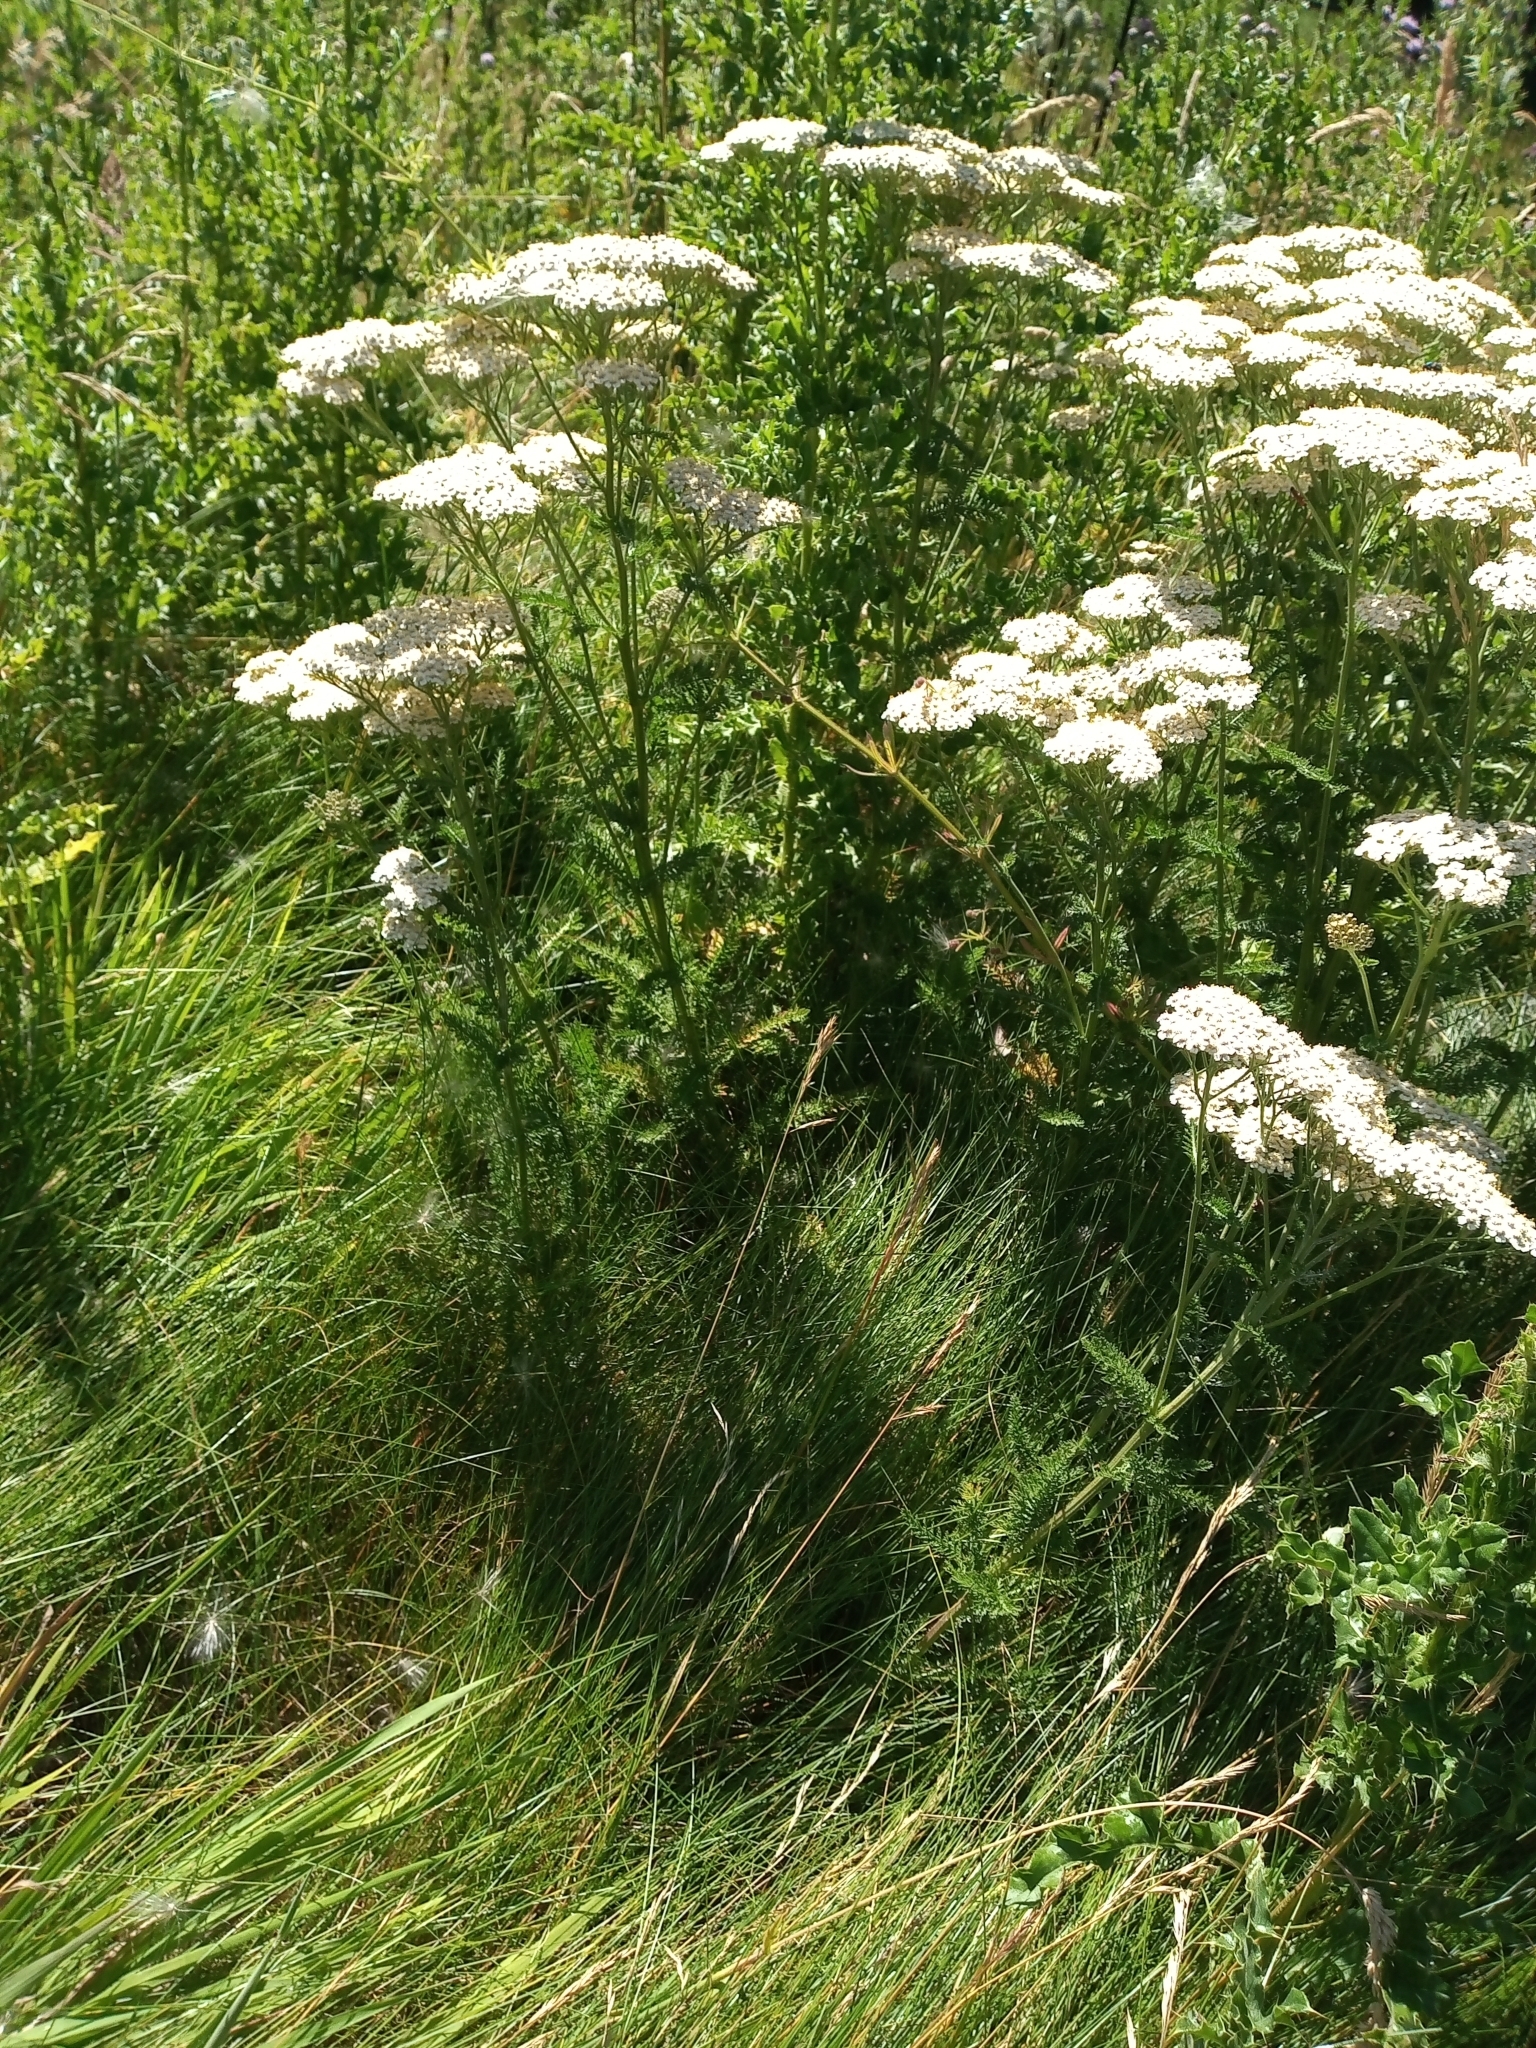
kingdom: Plantae
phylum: Tracheophyta
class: Magnoliopsida
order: Asterales
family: Asteraceae
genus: Achillea
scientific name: Achillea millefolium
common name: Yarrow
